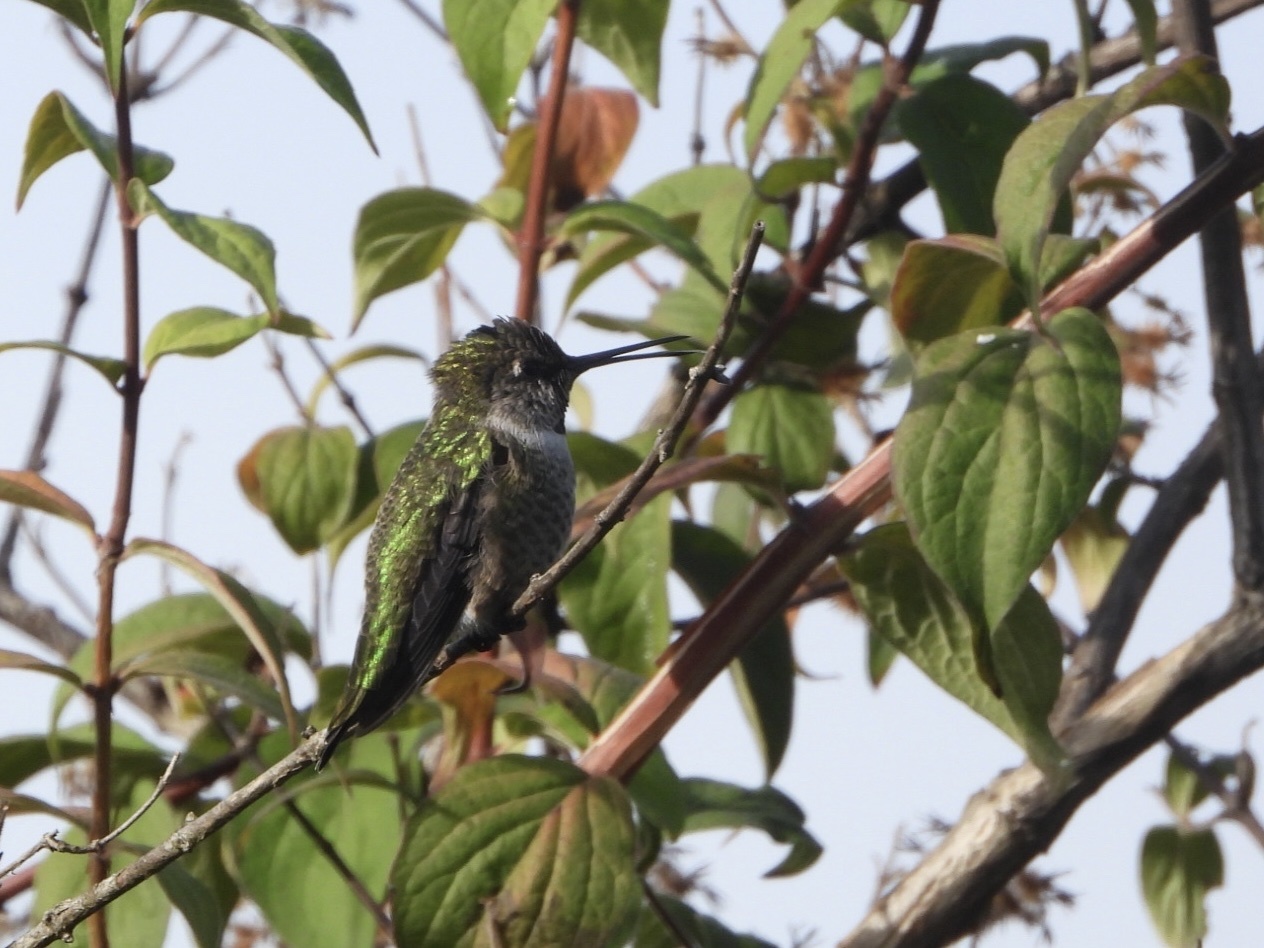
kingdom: Animalia
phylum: Chordata
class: Aves
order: Apodiformes
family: Trochilidae
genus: Calypte
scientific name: Calypte anna
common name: Anna's hummingbird
